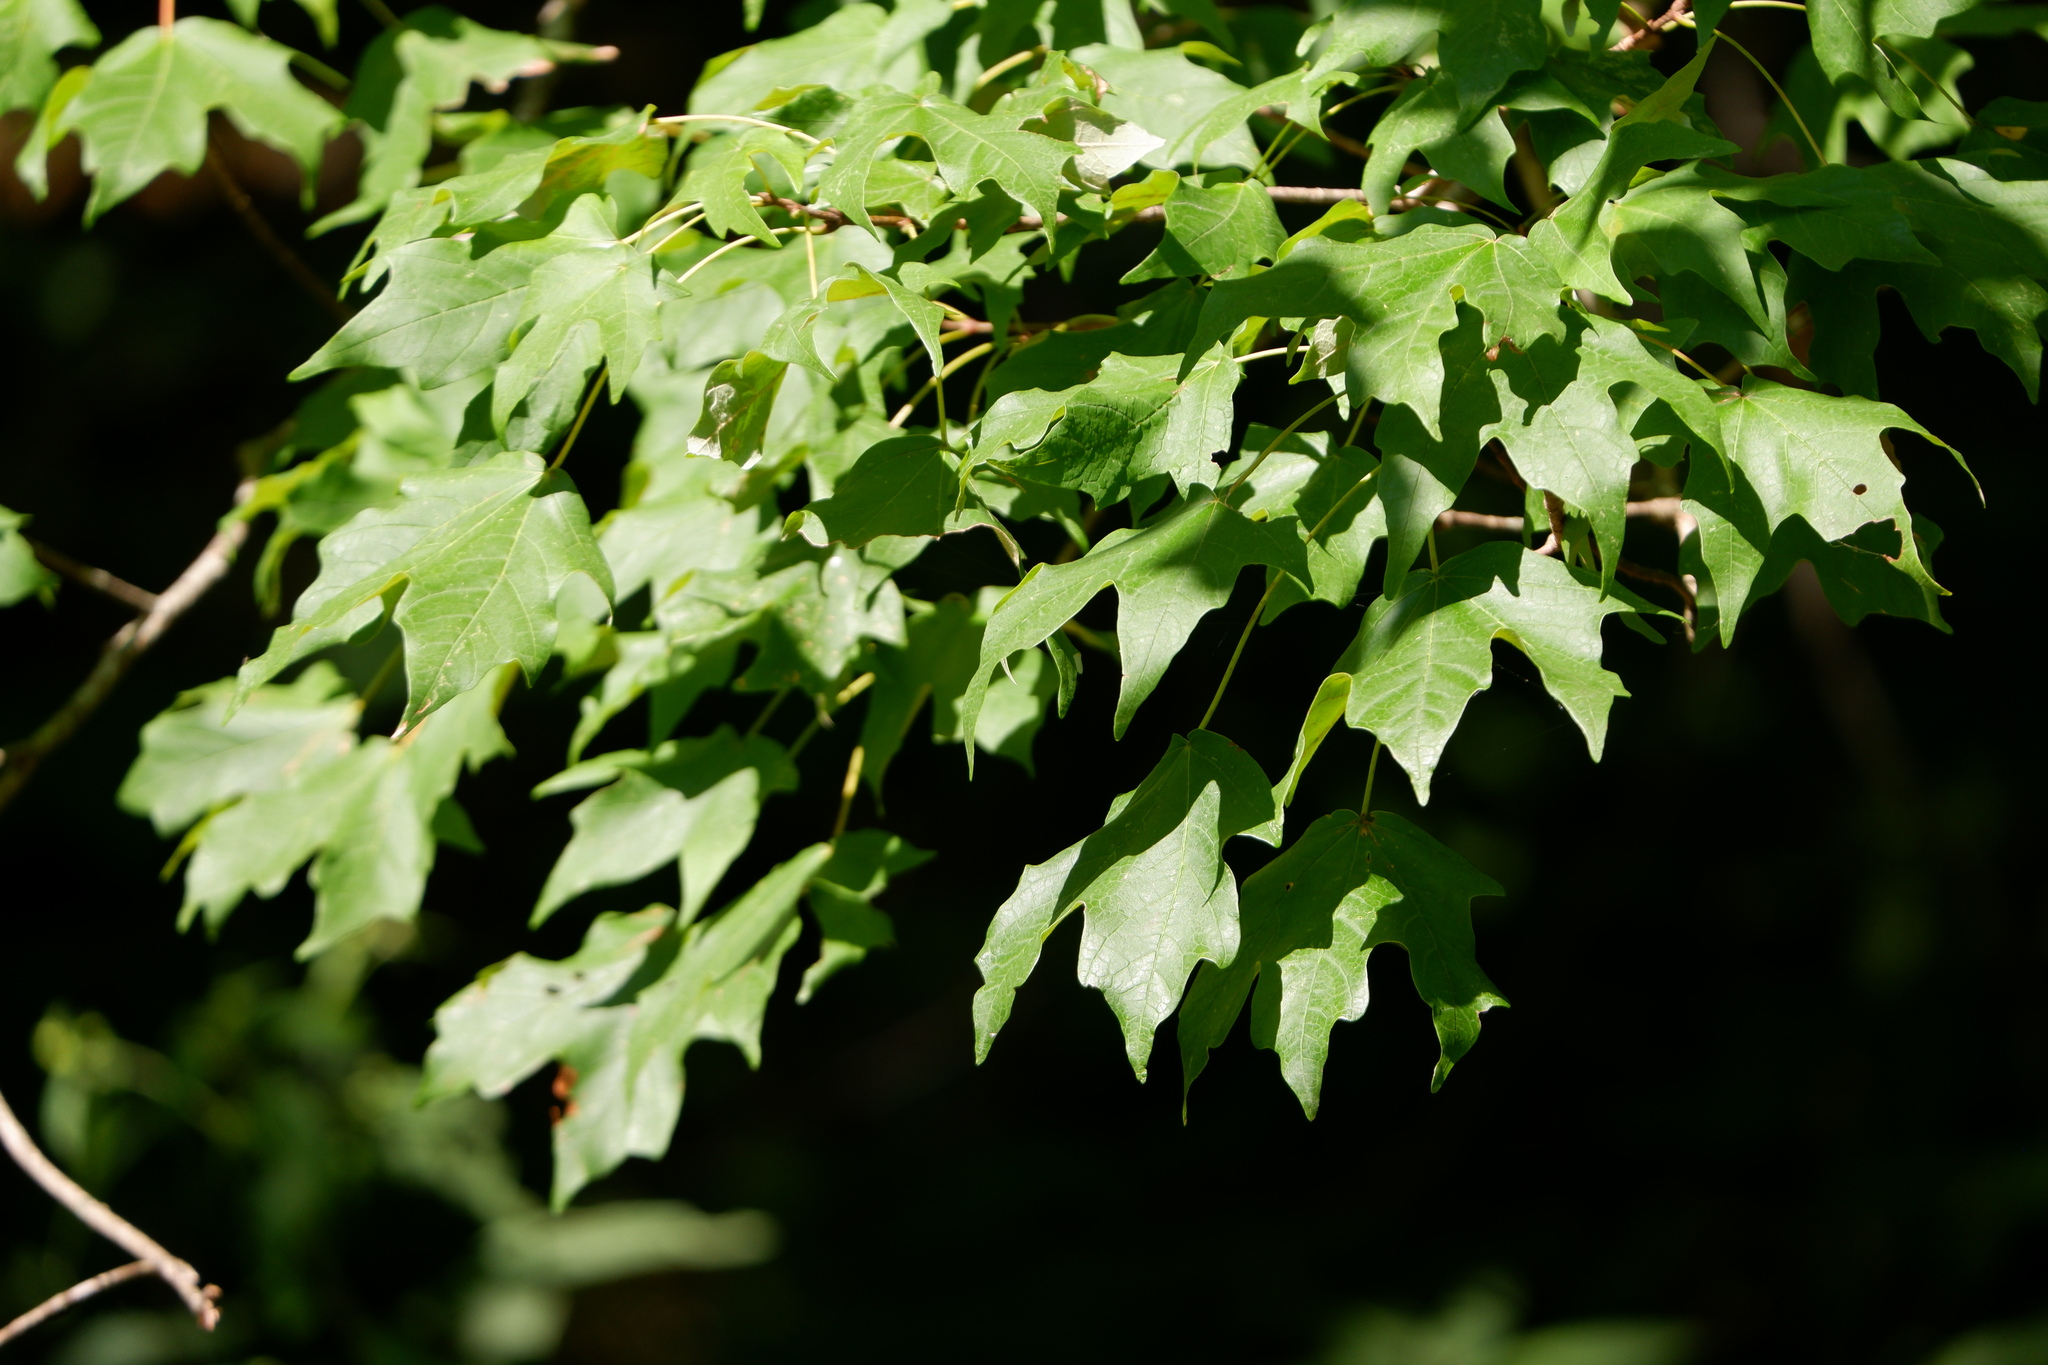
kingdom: Plantae
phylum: Tracheophyta
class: Magnoliopsida
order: Sapindales
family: Sapindaceae
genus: Acer
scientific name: Acer saccharum
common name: Sugar maple
